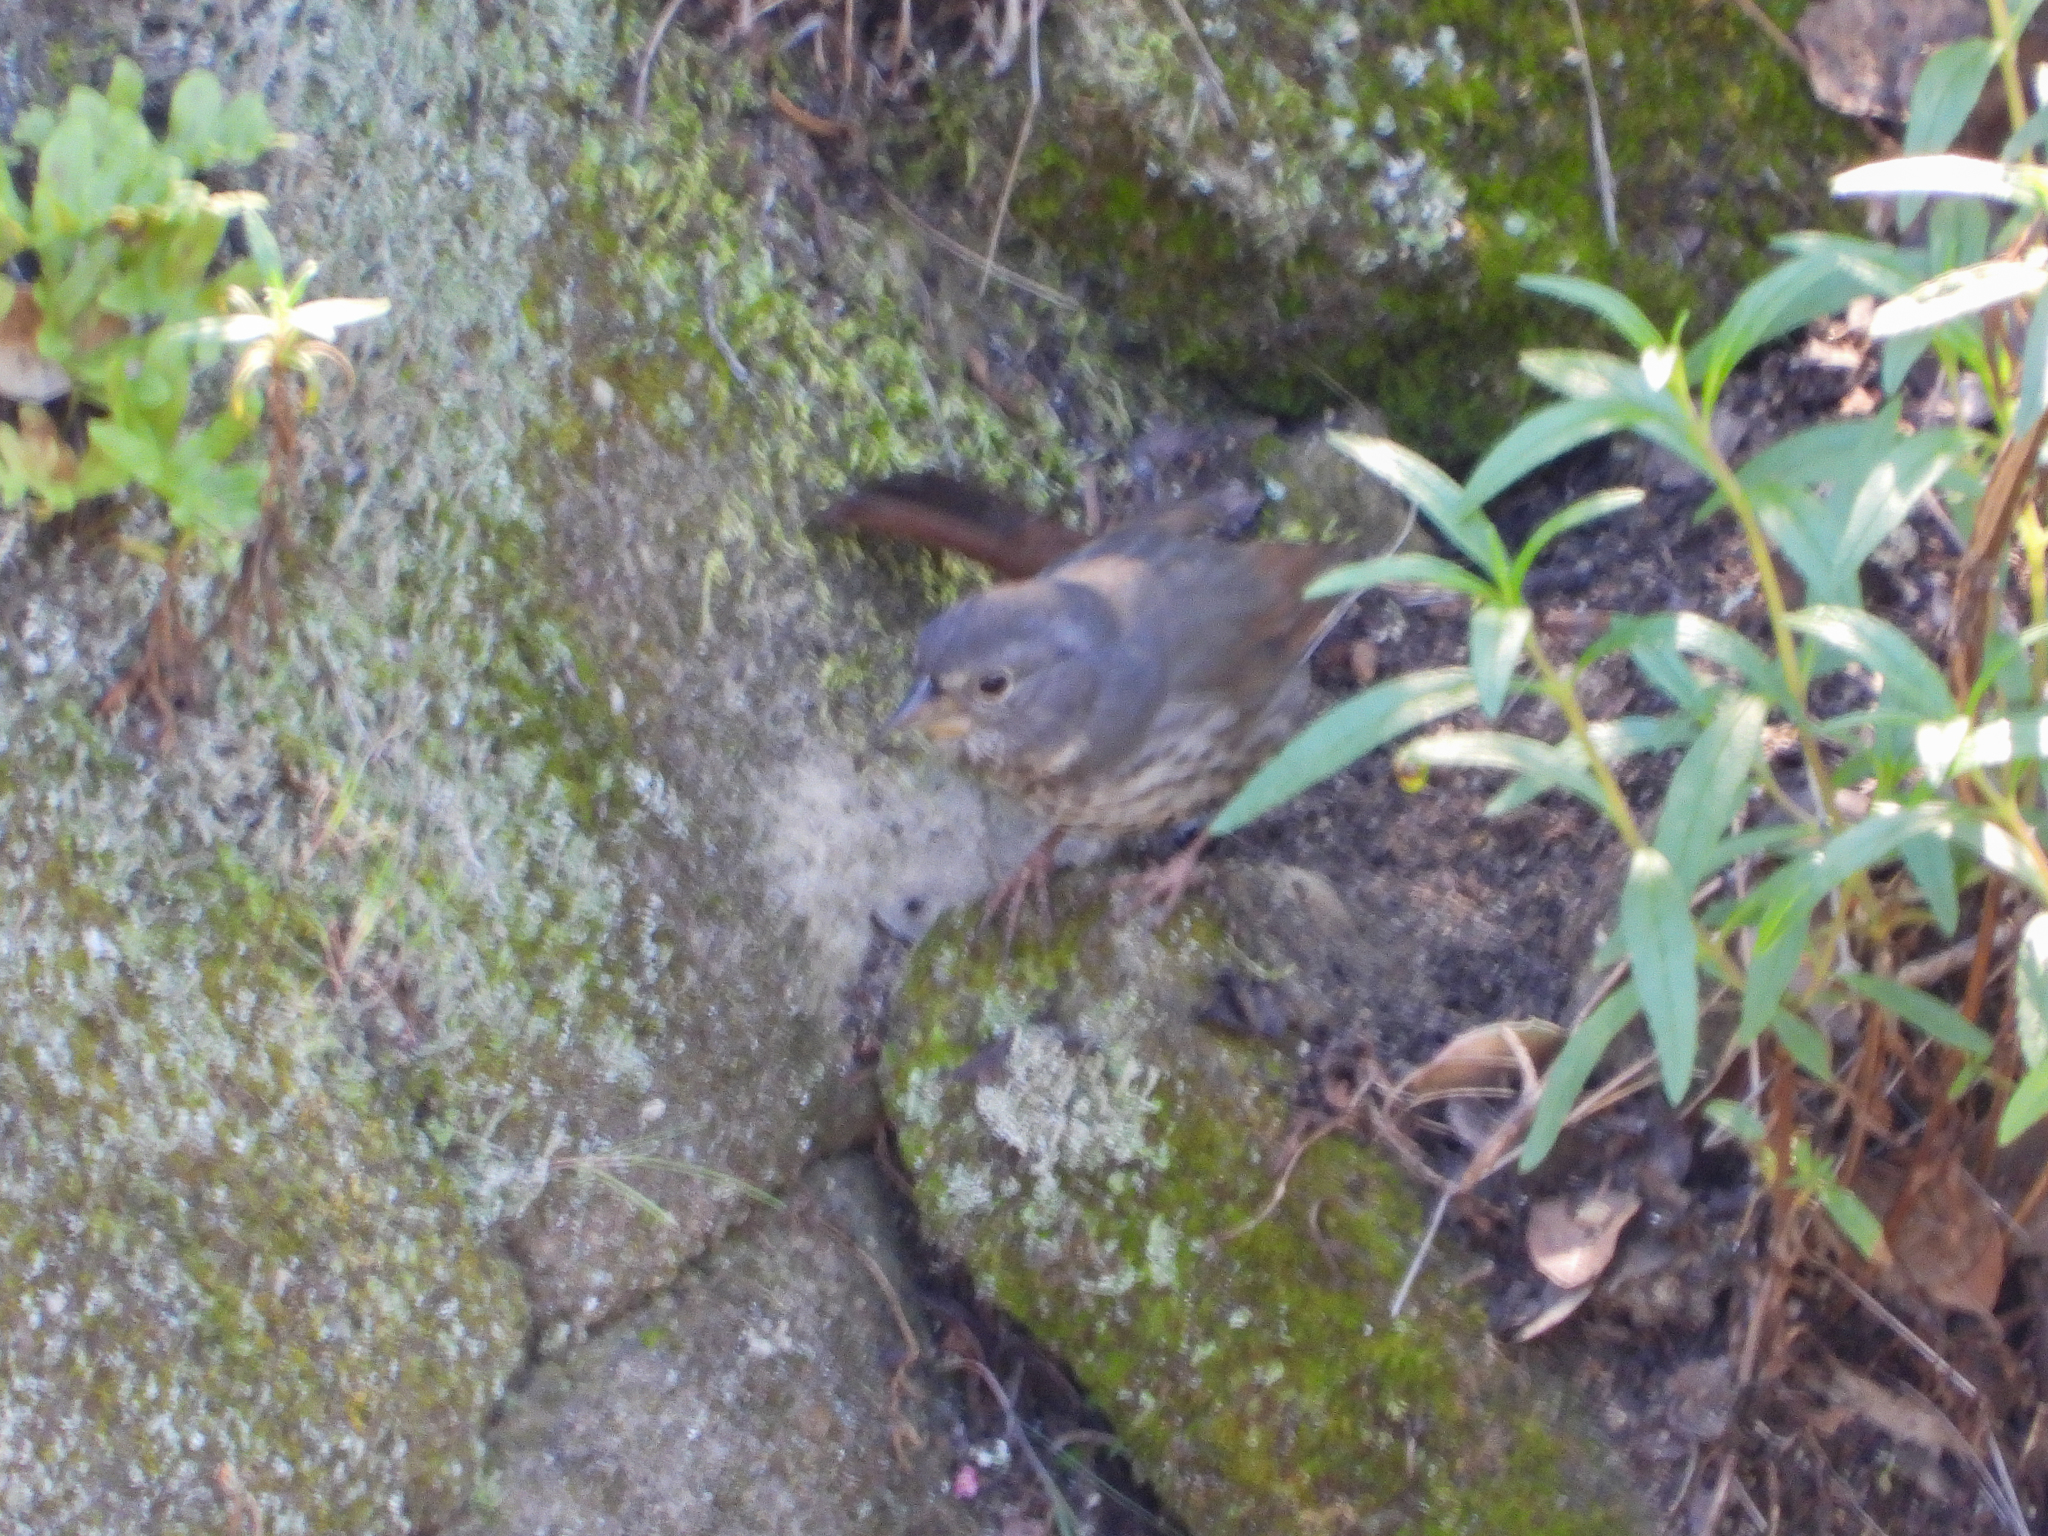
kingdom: Animalia
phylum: Chordata
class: Aves
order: Passeriformes
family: Passerellidae
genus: Passerella
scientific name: Passerella iliaca
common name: Fox sparrow
